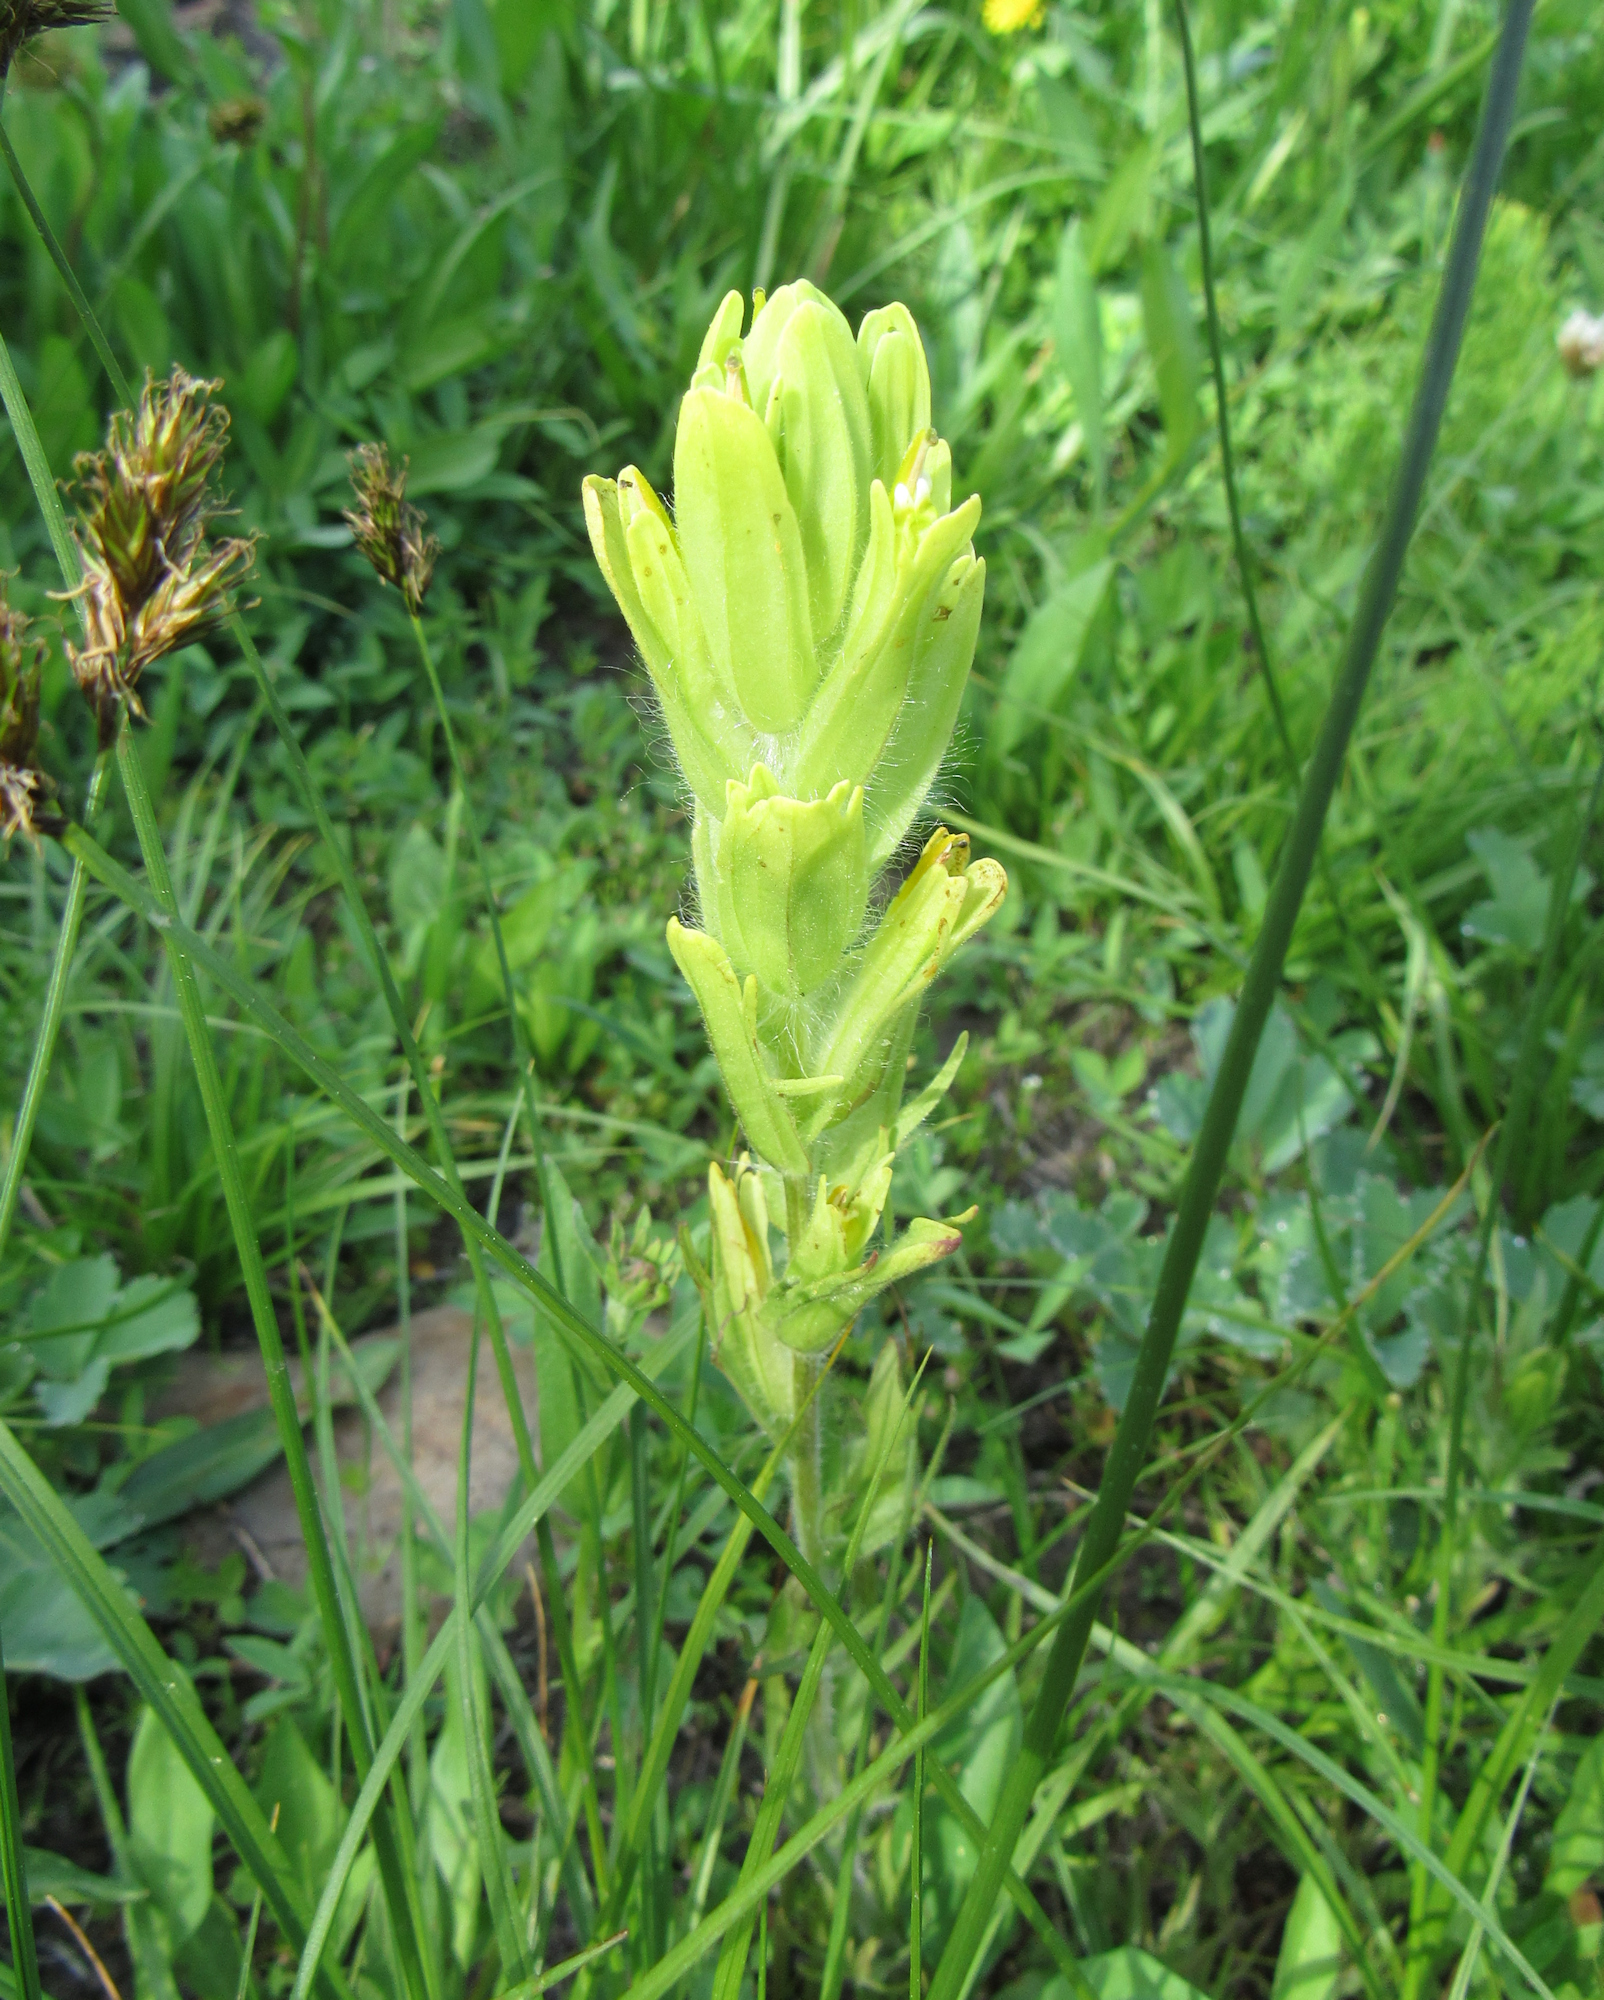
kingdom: Plantae
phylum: Tracheophyta
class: Magnoliopsida
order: Lamiales
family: Orobanchaceae
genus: Castilleja
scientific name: Castilleja cusickii
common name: Cusick's paintbrush
